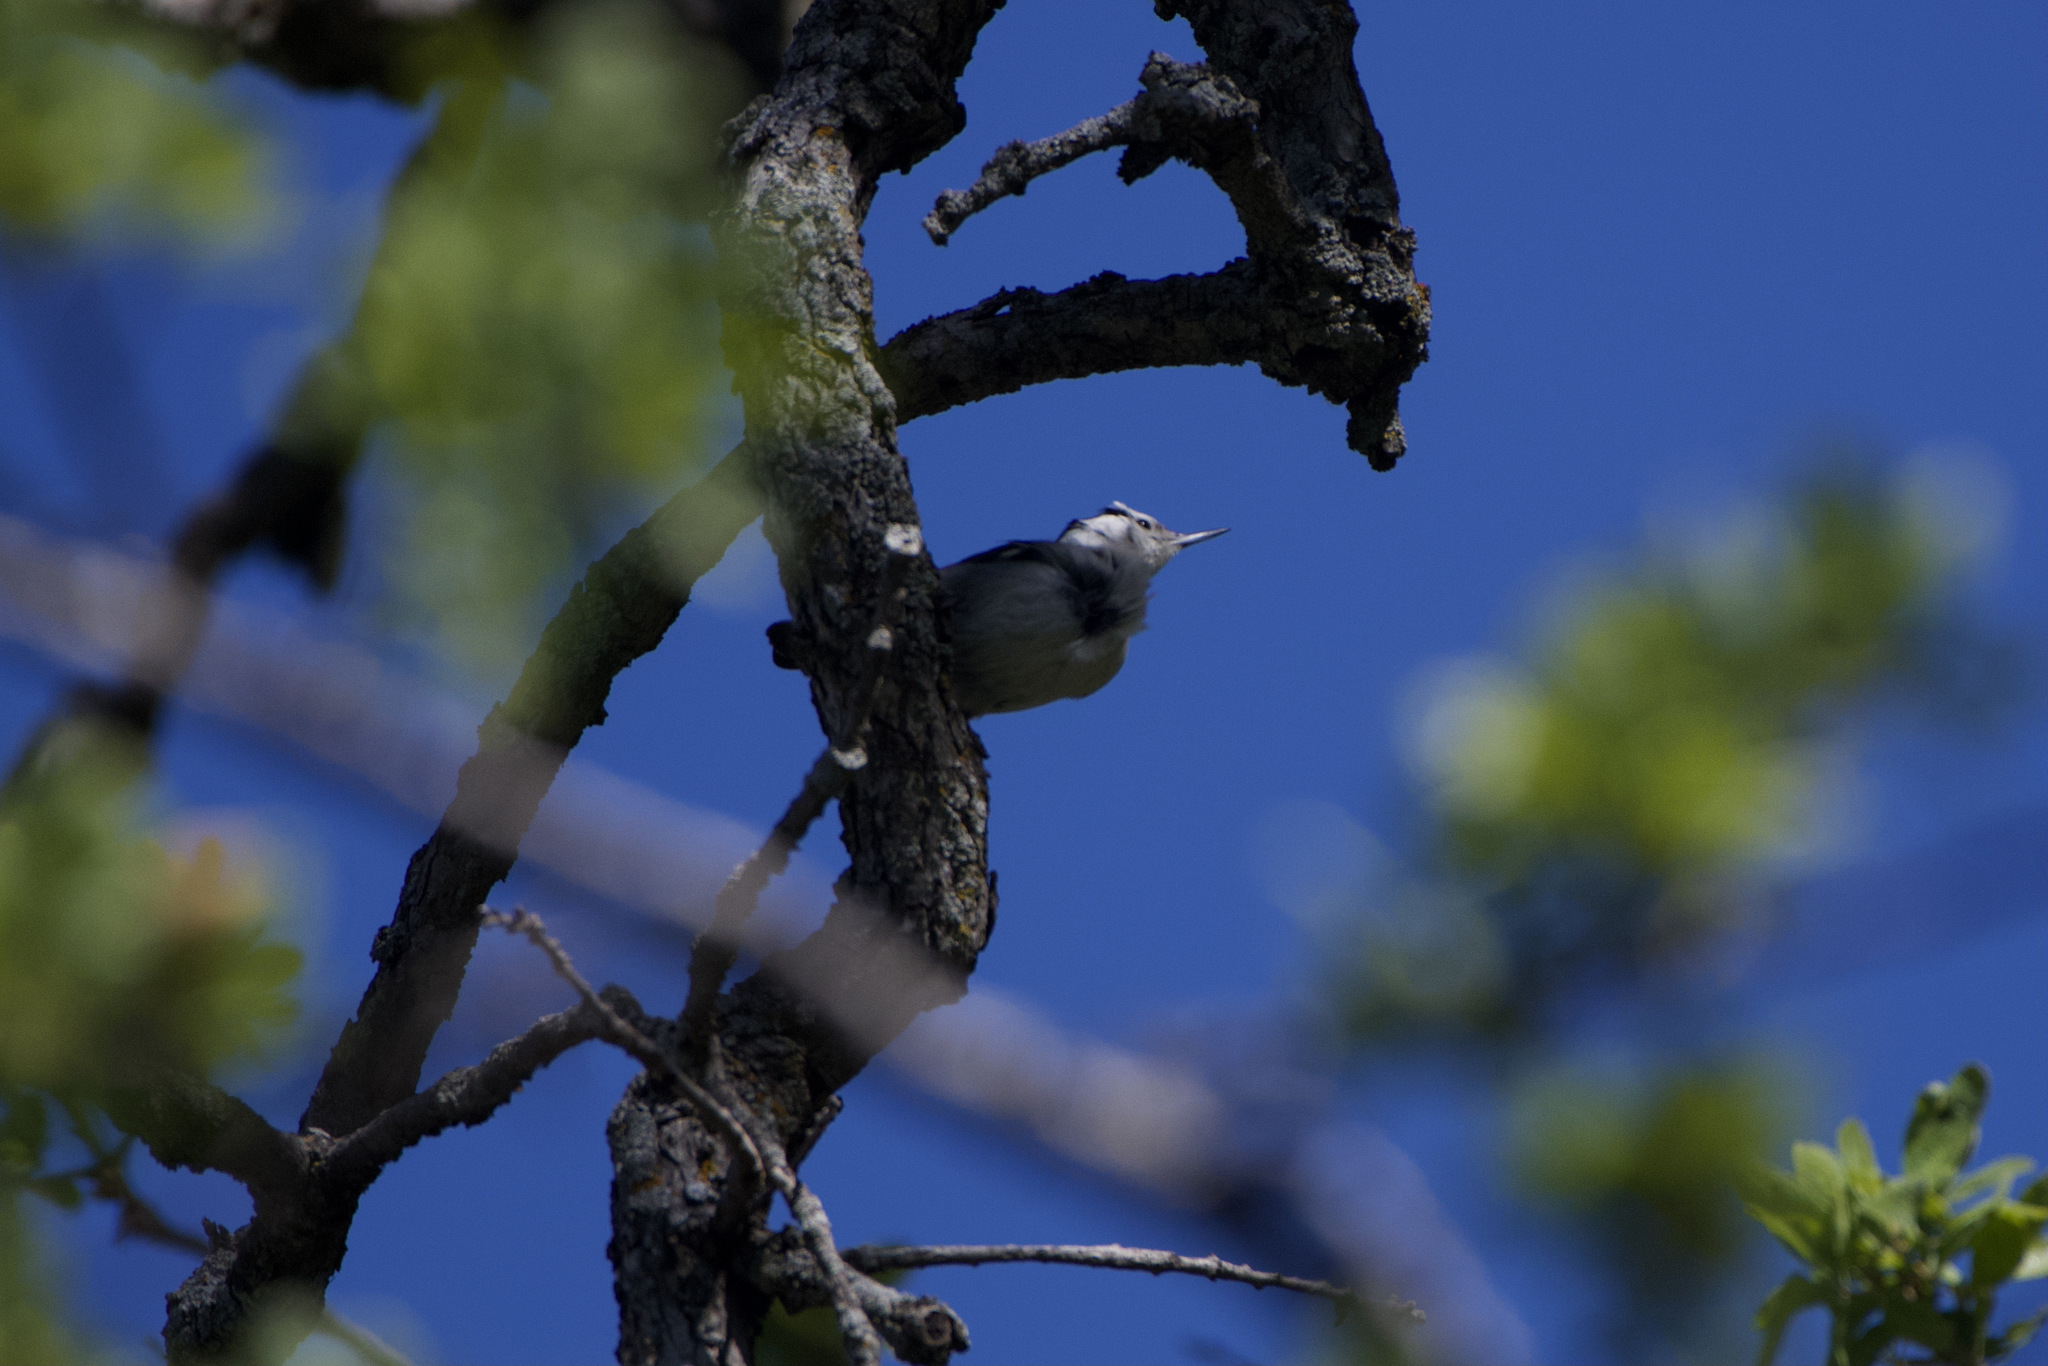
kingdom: Animalia
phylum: Chordata
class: Aves
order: Passeriformes
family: Sittidae
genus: Sitta
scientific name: Sitta carolinensis
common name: White-breasted nuthatch
